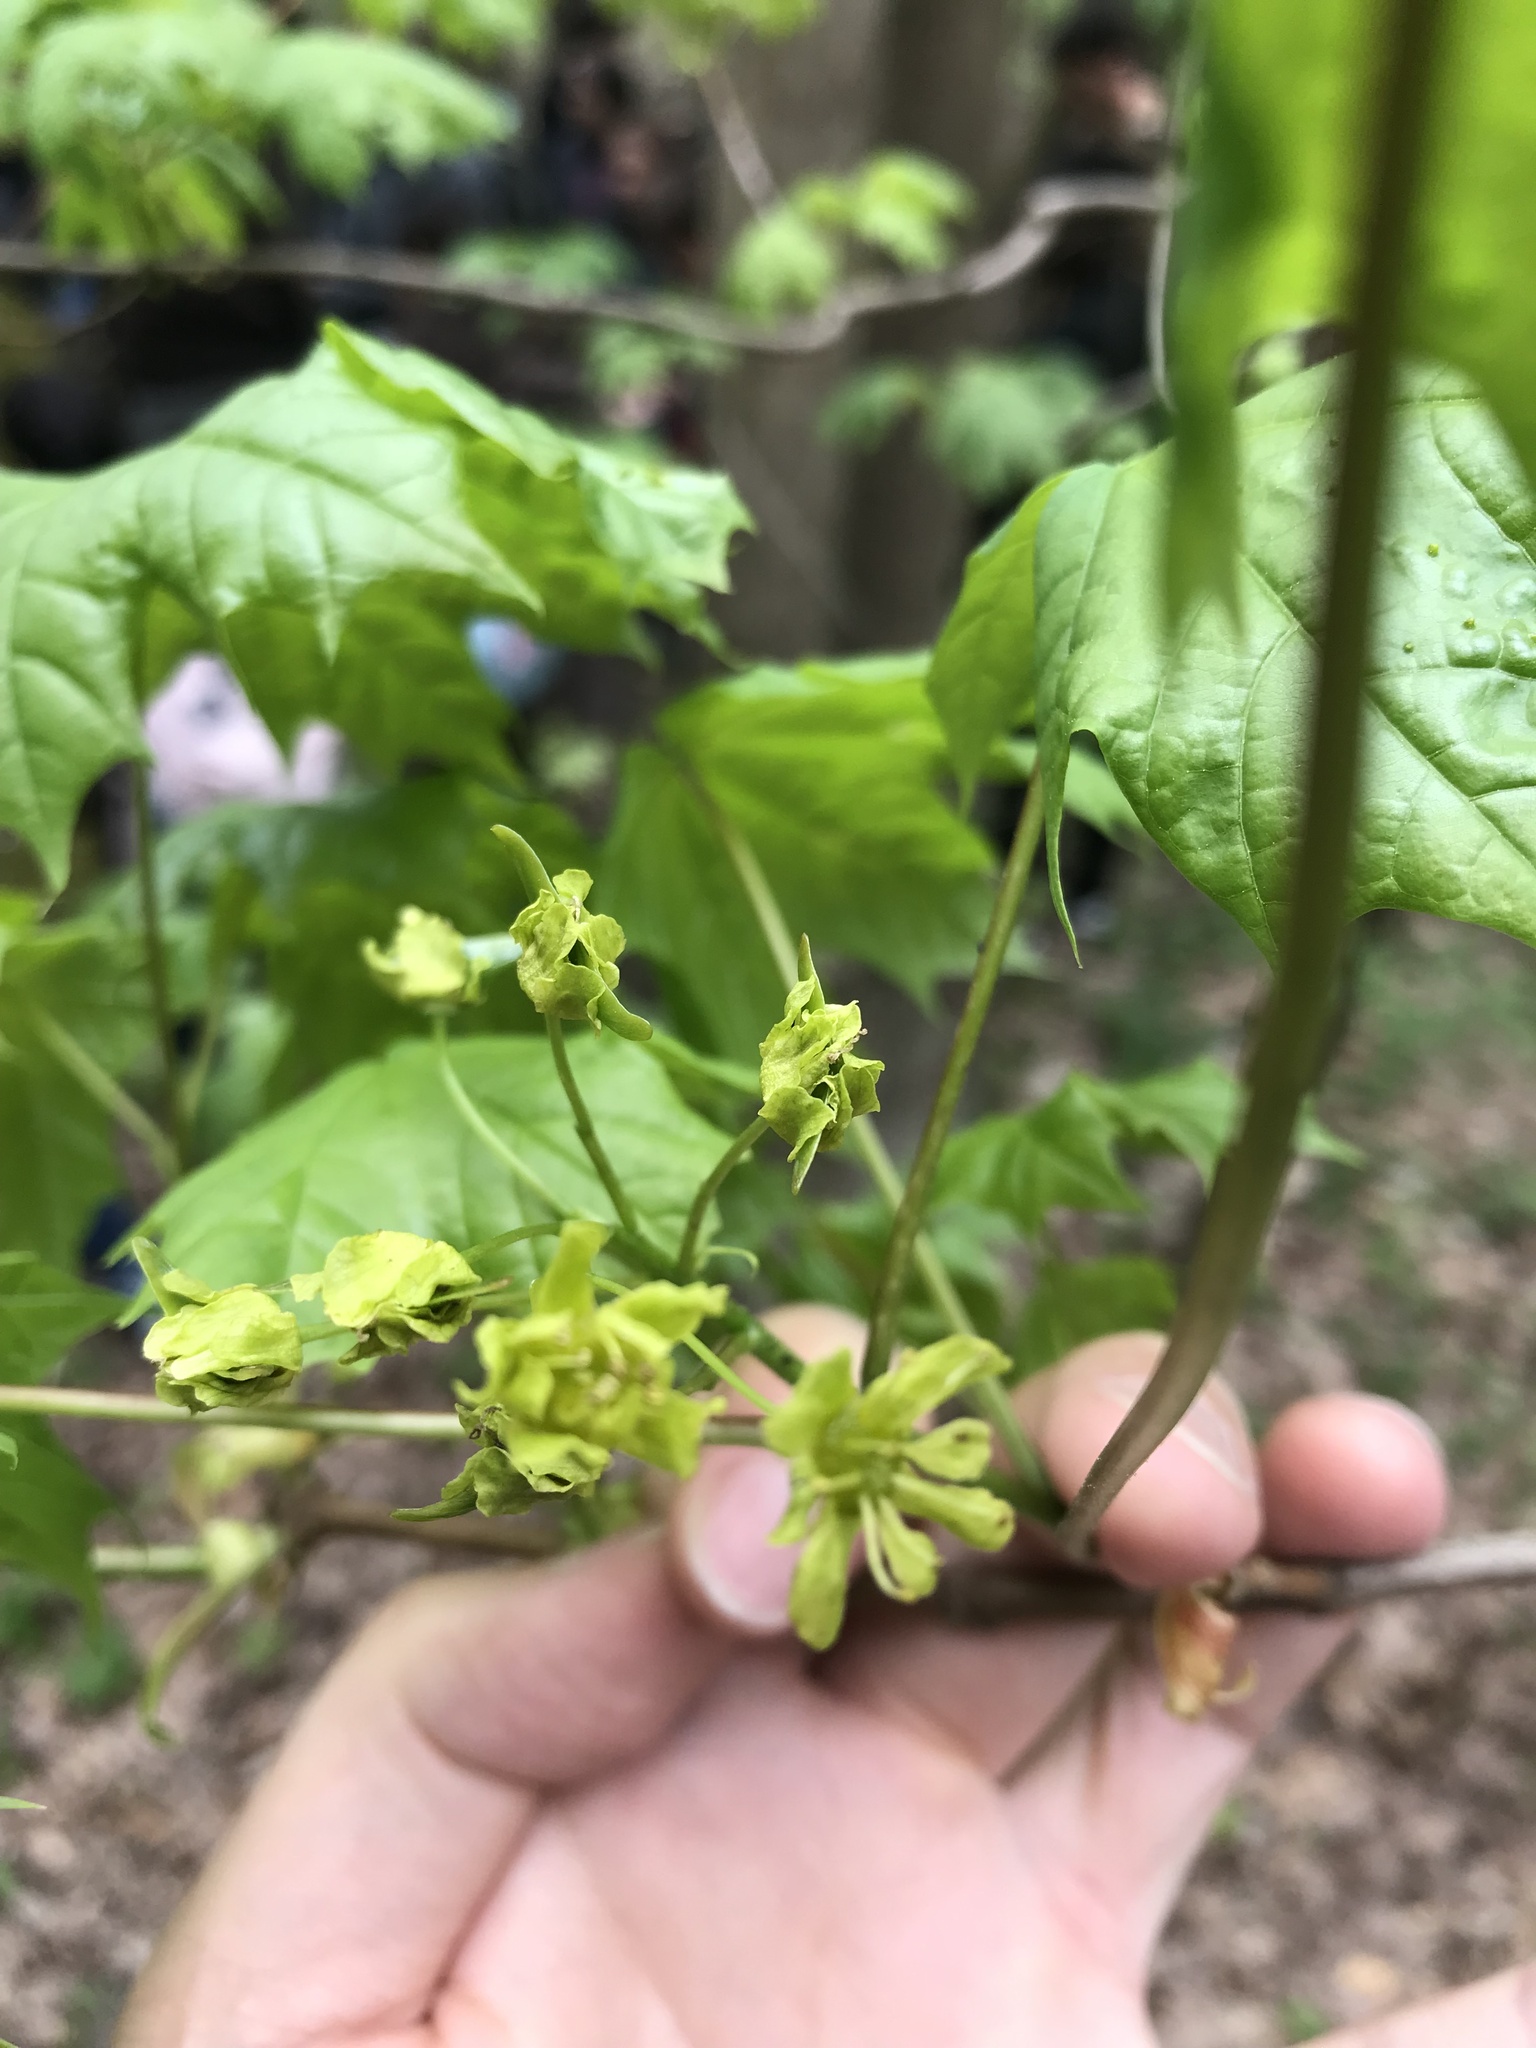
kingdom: Plantae
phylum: Tracheophyta
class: Magnoliopsida
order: Sapindales
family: Sapindaceae
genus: Acer
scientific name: Acer platanoides
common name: Norway maple
